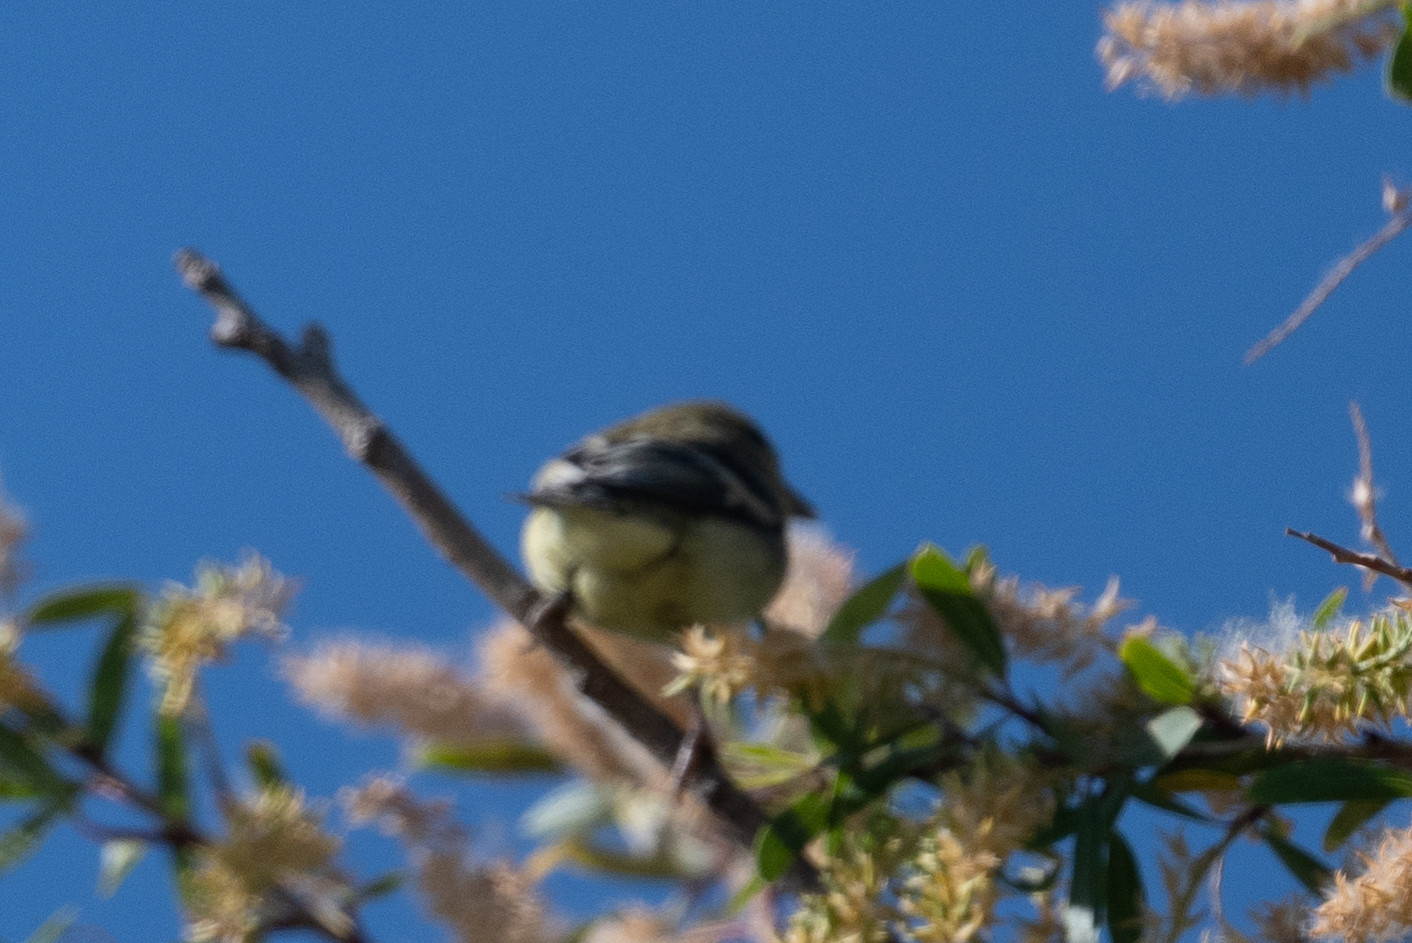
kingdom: Animalia
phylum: Chordata
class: Aves
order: Passeriformes
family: Fringillidae
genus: Spinus
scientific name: Spinus psaltria
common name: Lesser goldfinch
